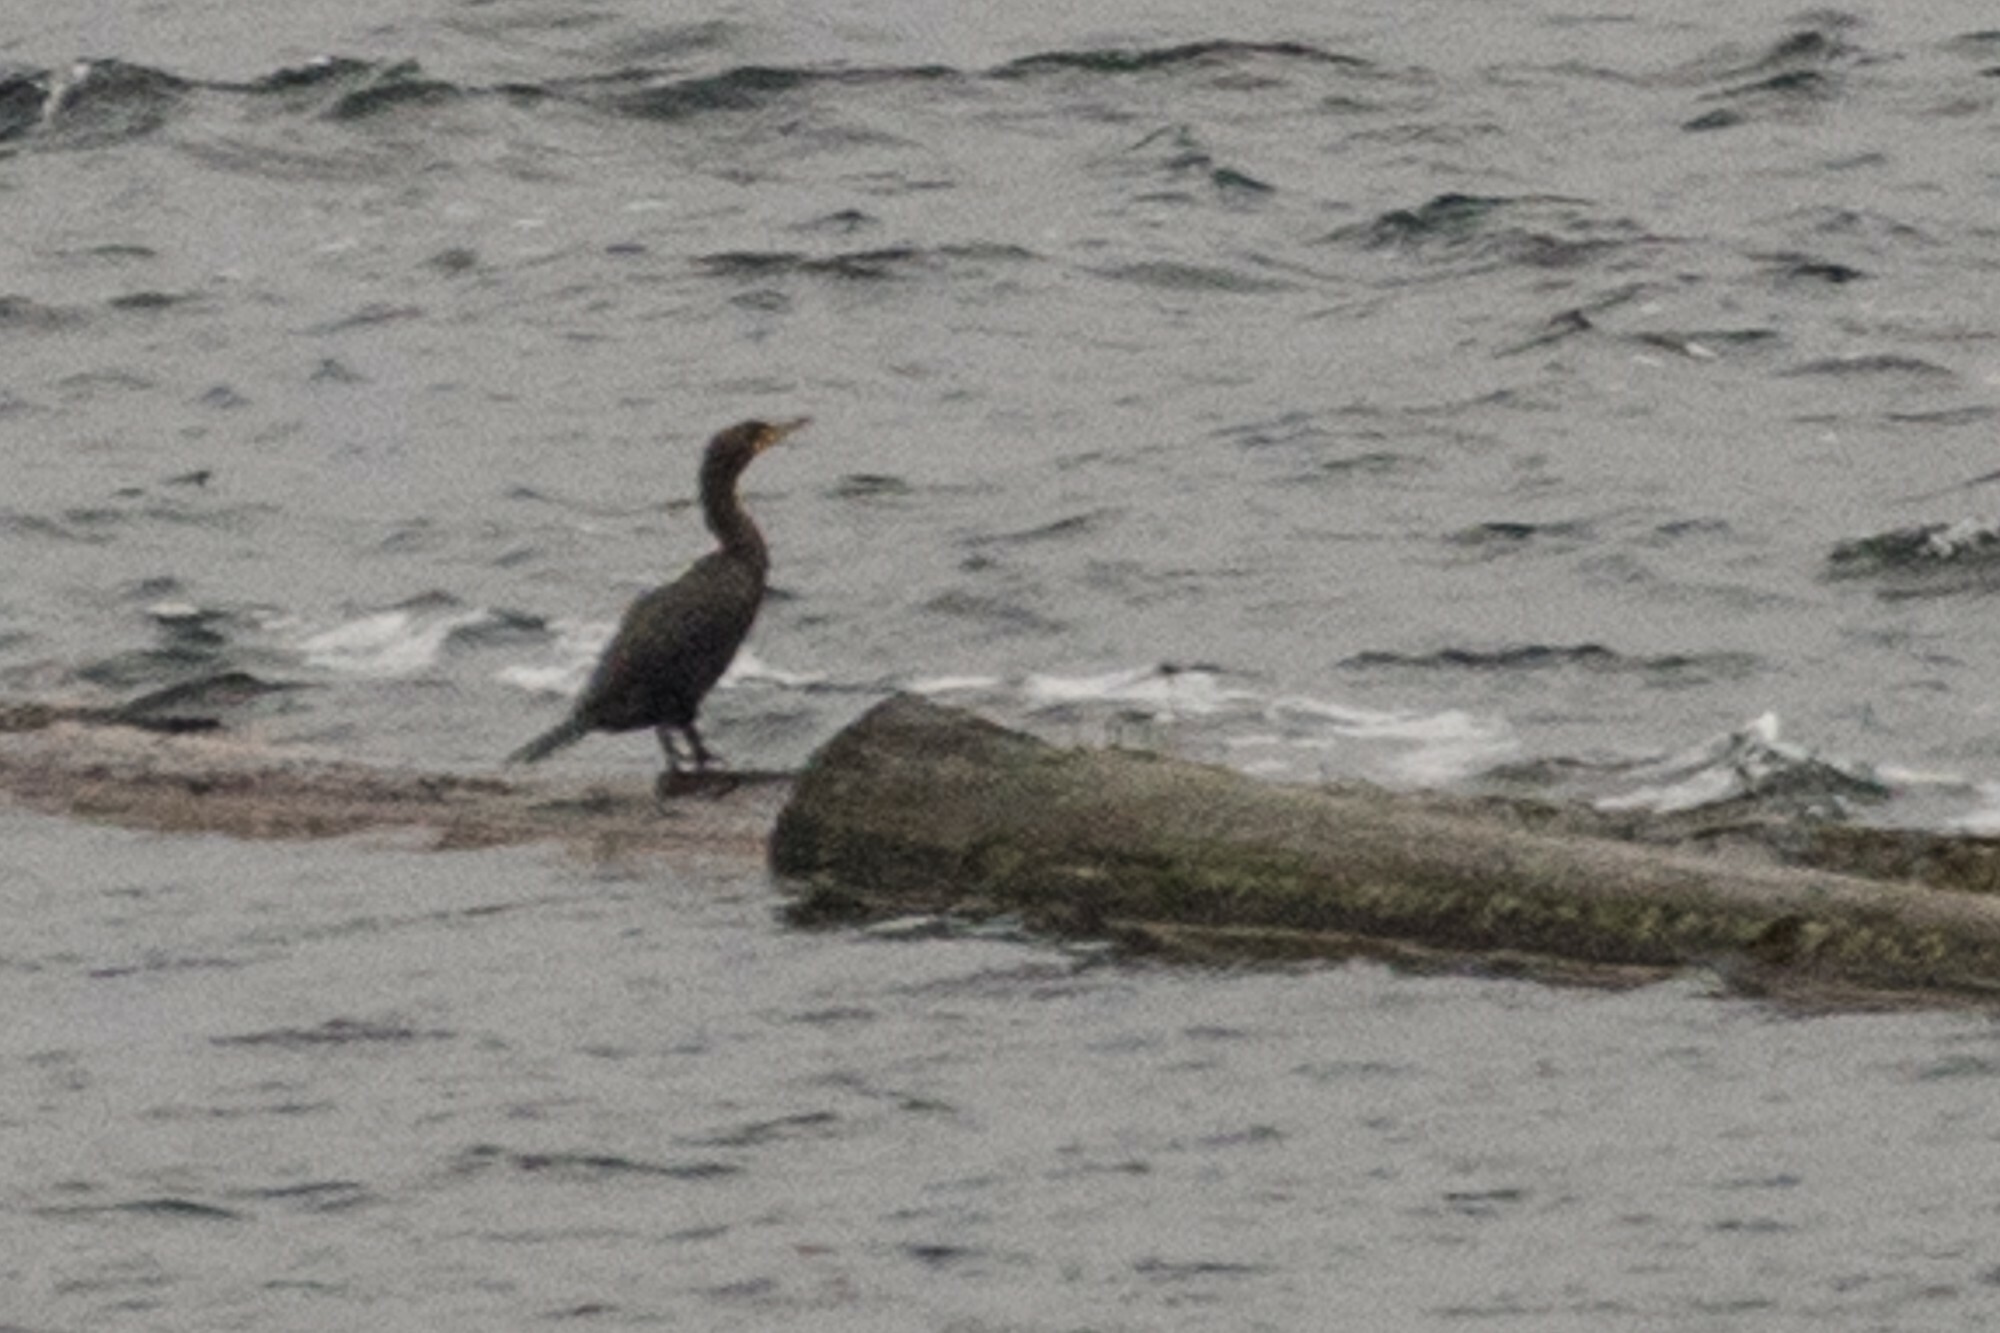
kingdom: Animalia
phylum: Chordata
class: Aves
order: Suliformes
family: Phalacrocoracidae
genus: Phalacrocorax
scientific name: Phalacrocorax auritus
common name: Double-crested cormorant
